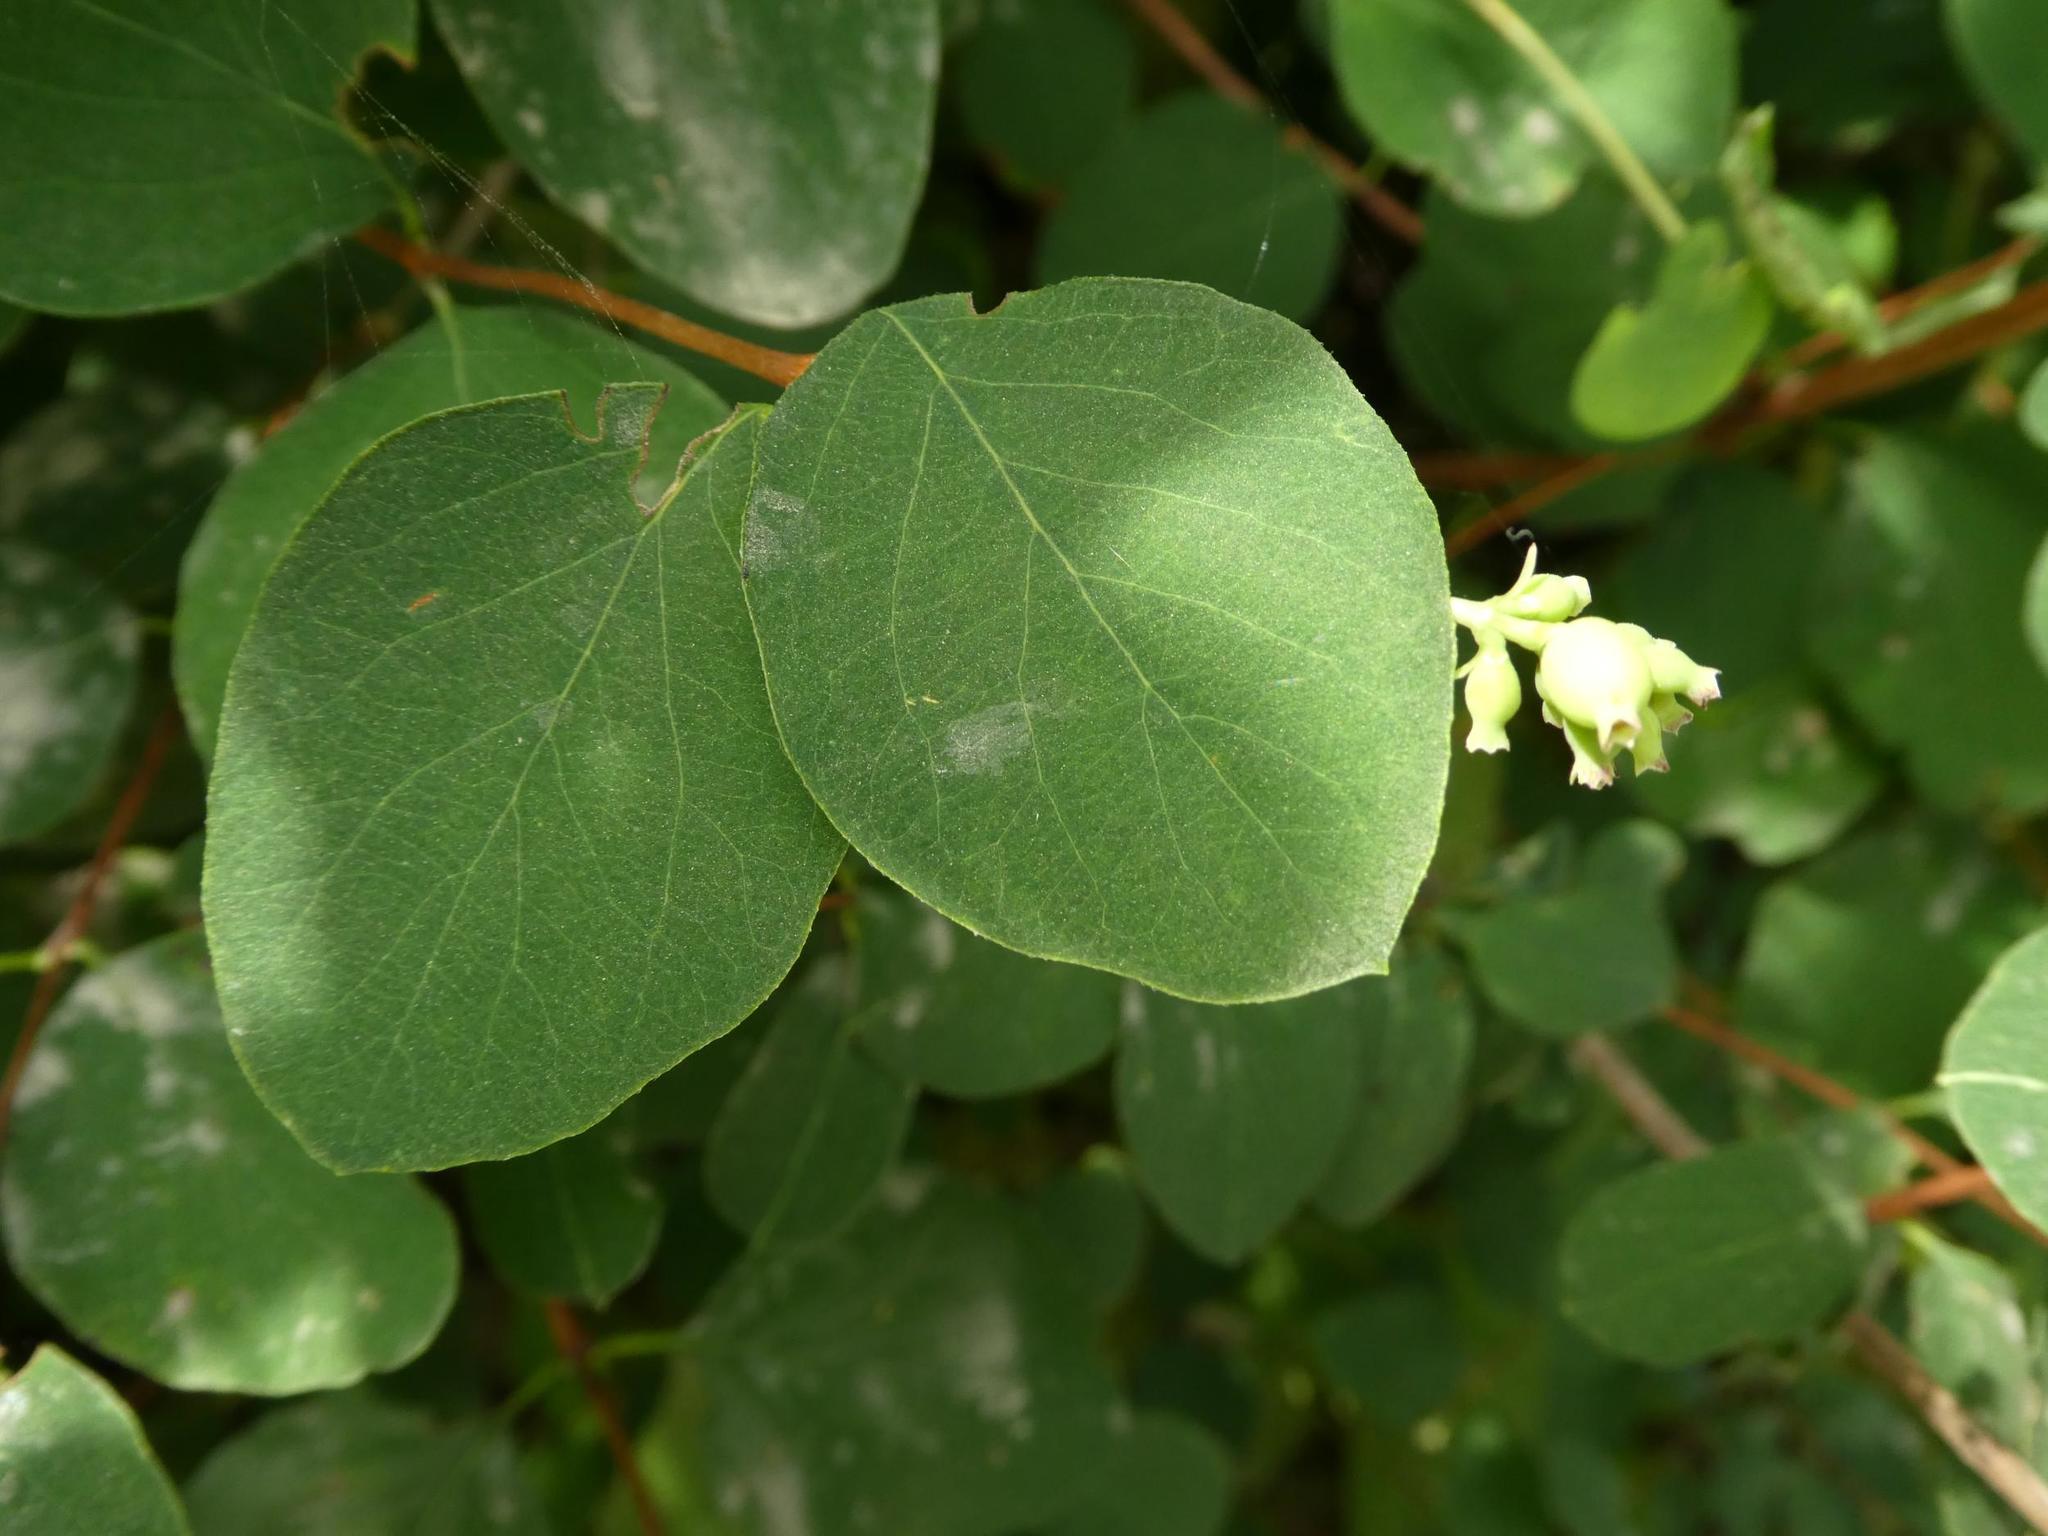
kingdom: Plantae
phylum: Tracheophyta
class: Magnoliopsida
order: Dipsacales
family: Caprifoliaceae
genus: Symphoricarpos
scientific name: Symphoricarpos albus
